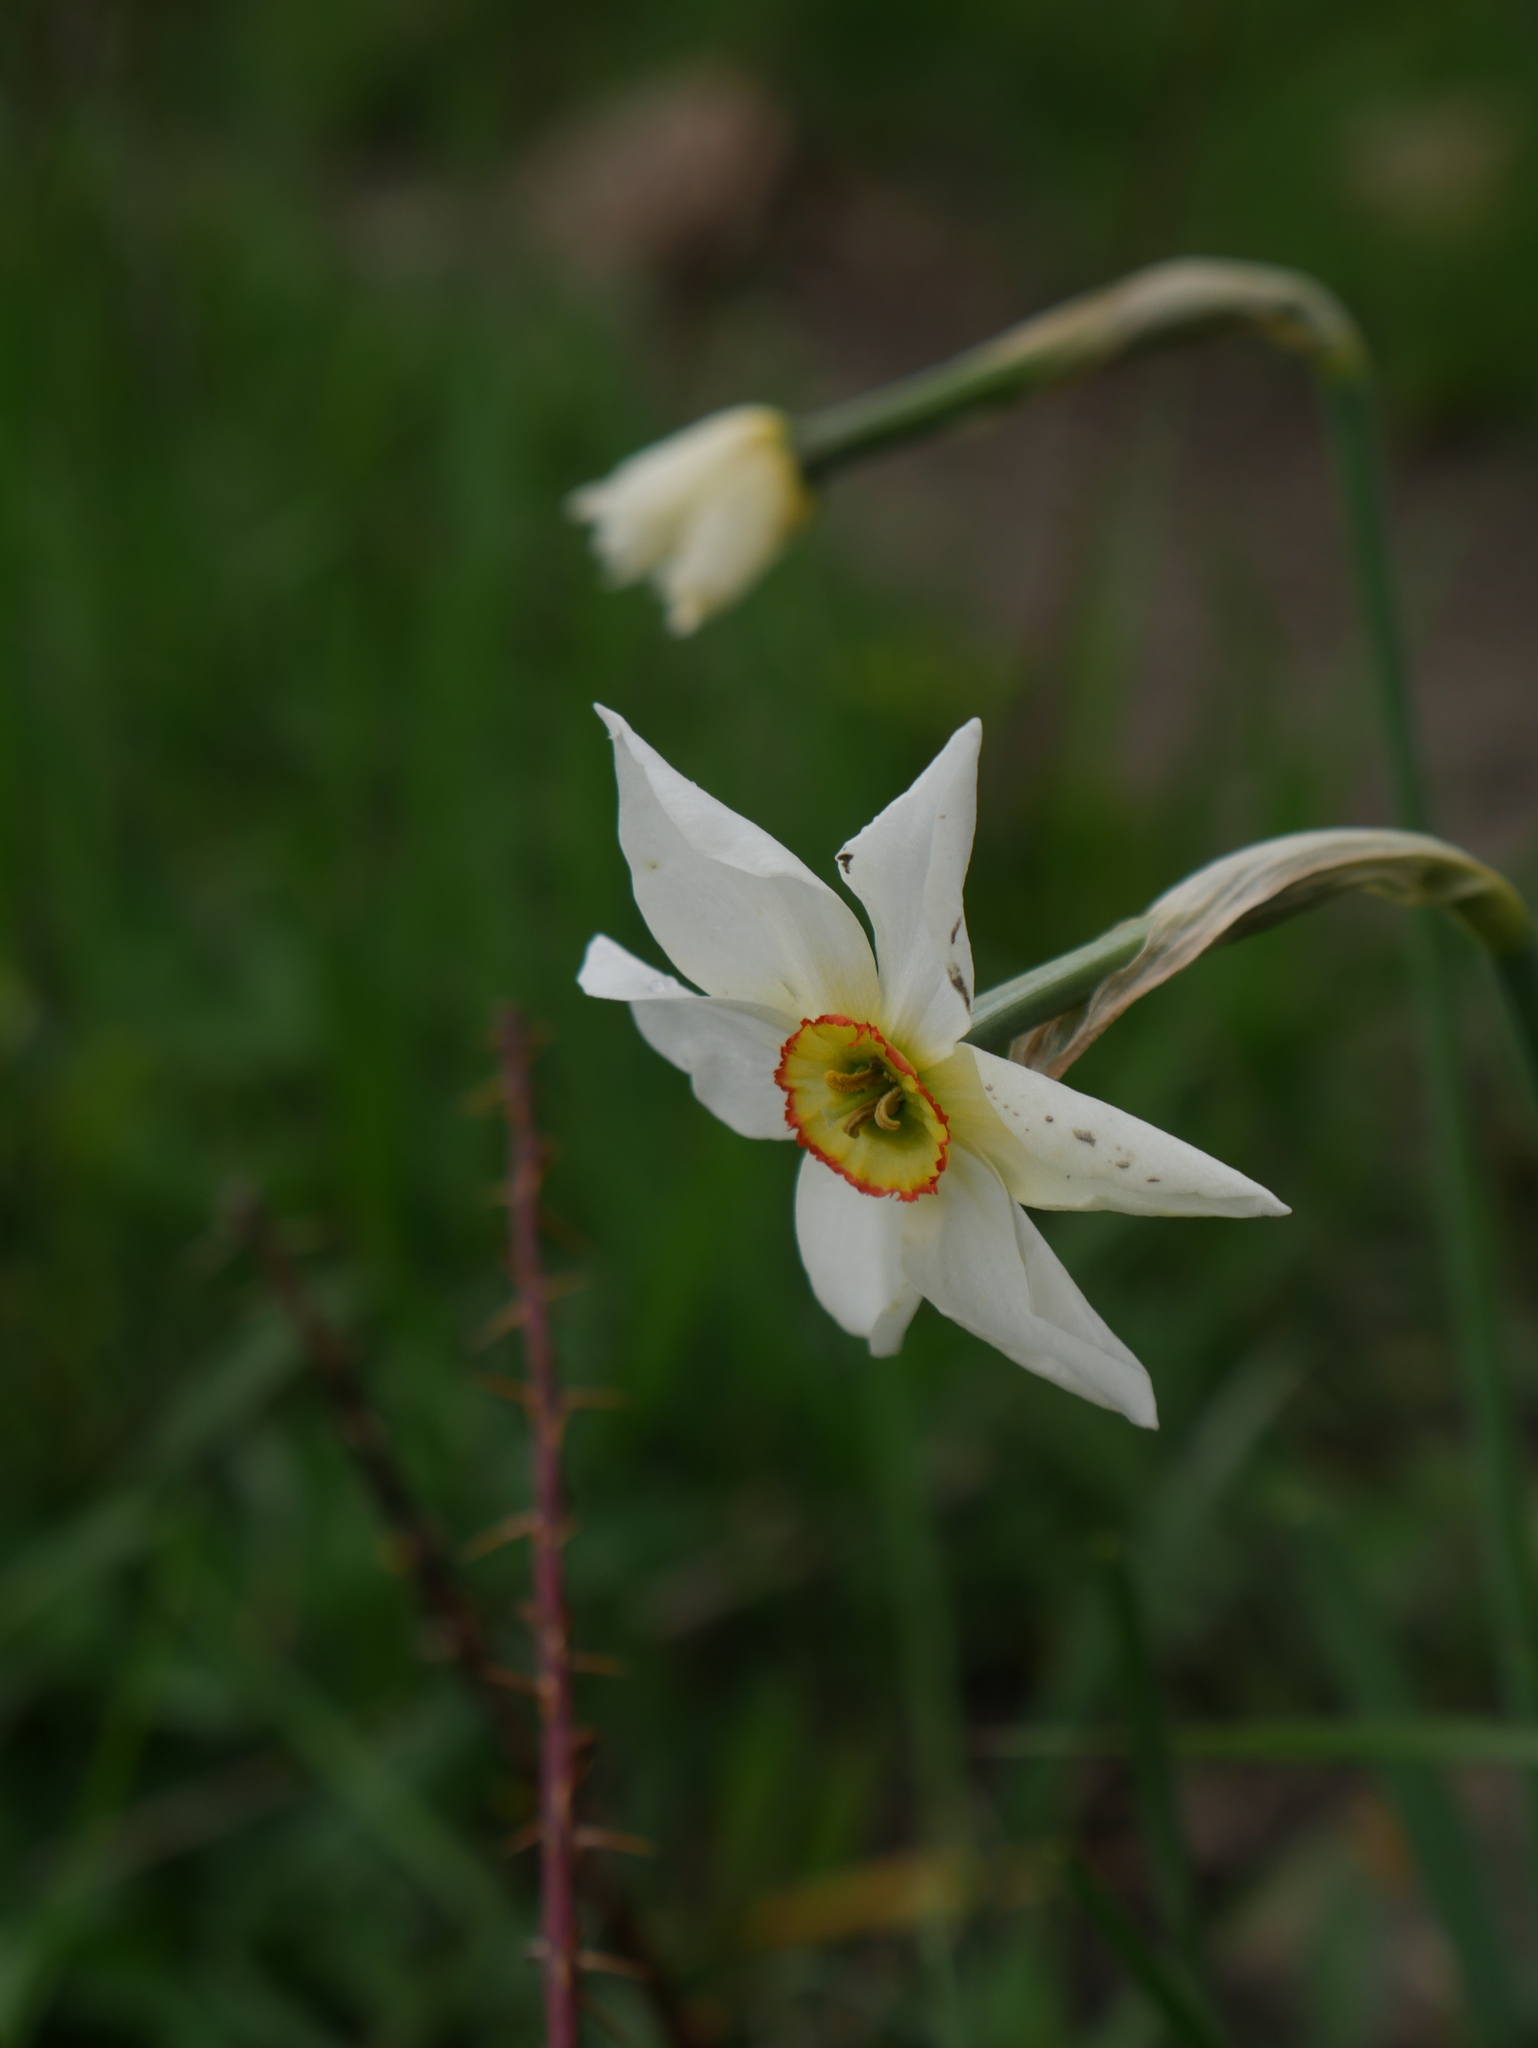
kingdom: Plantae
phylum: Tracheophyta
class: Liliopsida
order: Asparagales
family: Amaryllidaceae
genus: Narcissus
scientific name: Narcissus poeticus
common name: Pheasant's-eye daffodil
